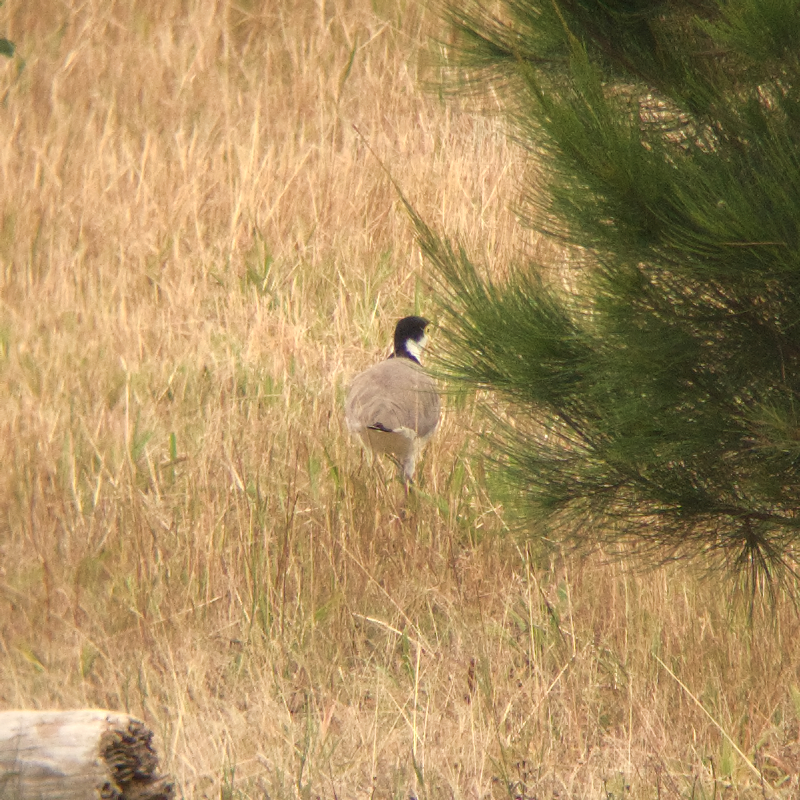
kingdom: Animalia
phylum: Chordata
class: Aves
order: Charadriiformes
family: Charadriidae
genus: Vanellus
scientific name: Vanellus miles
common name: Masked lapwing
